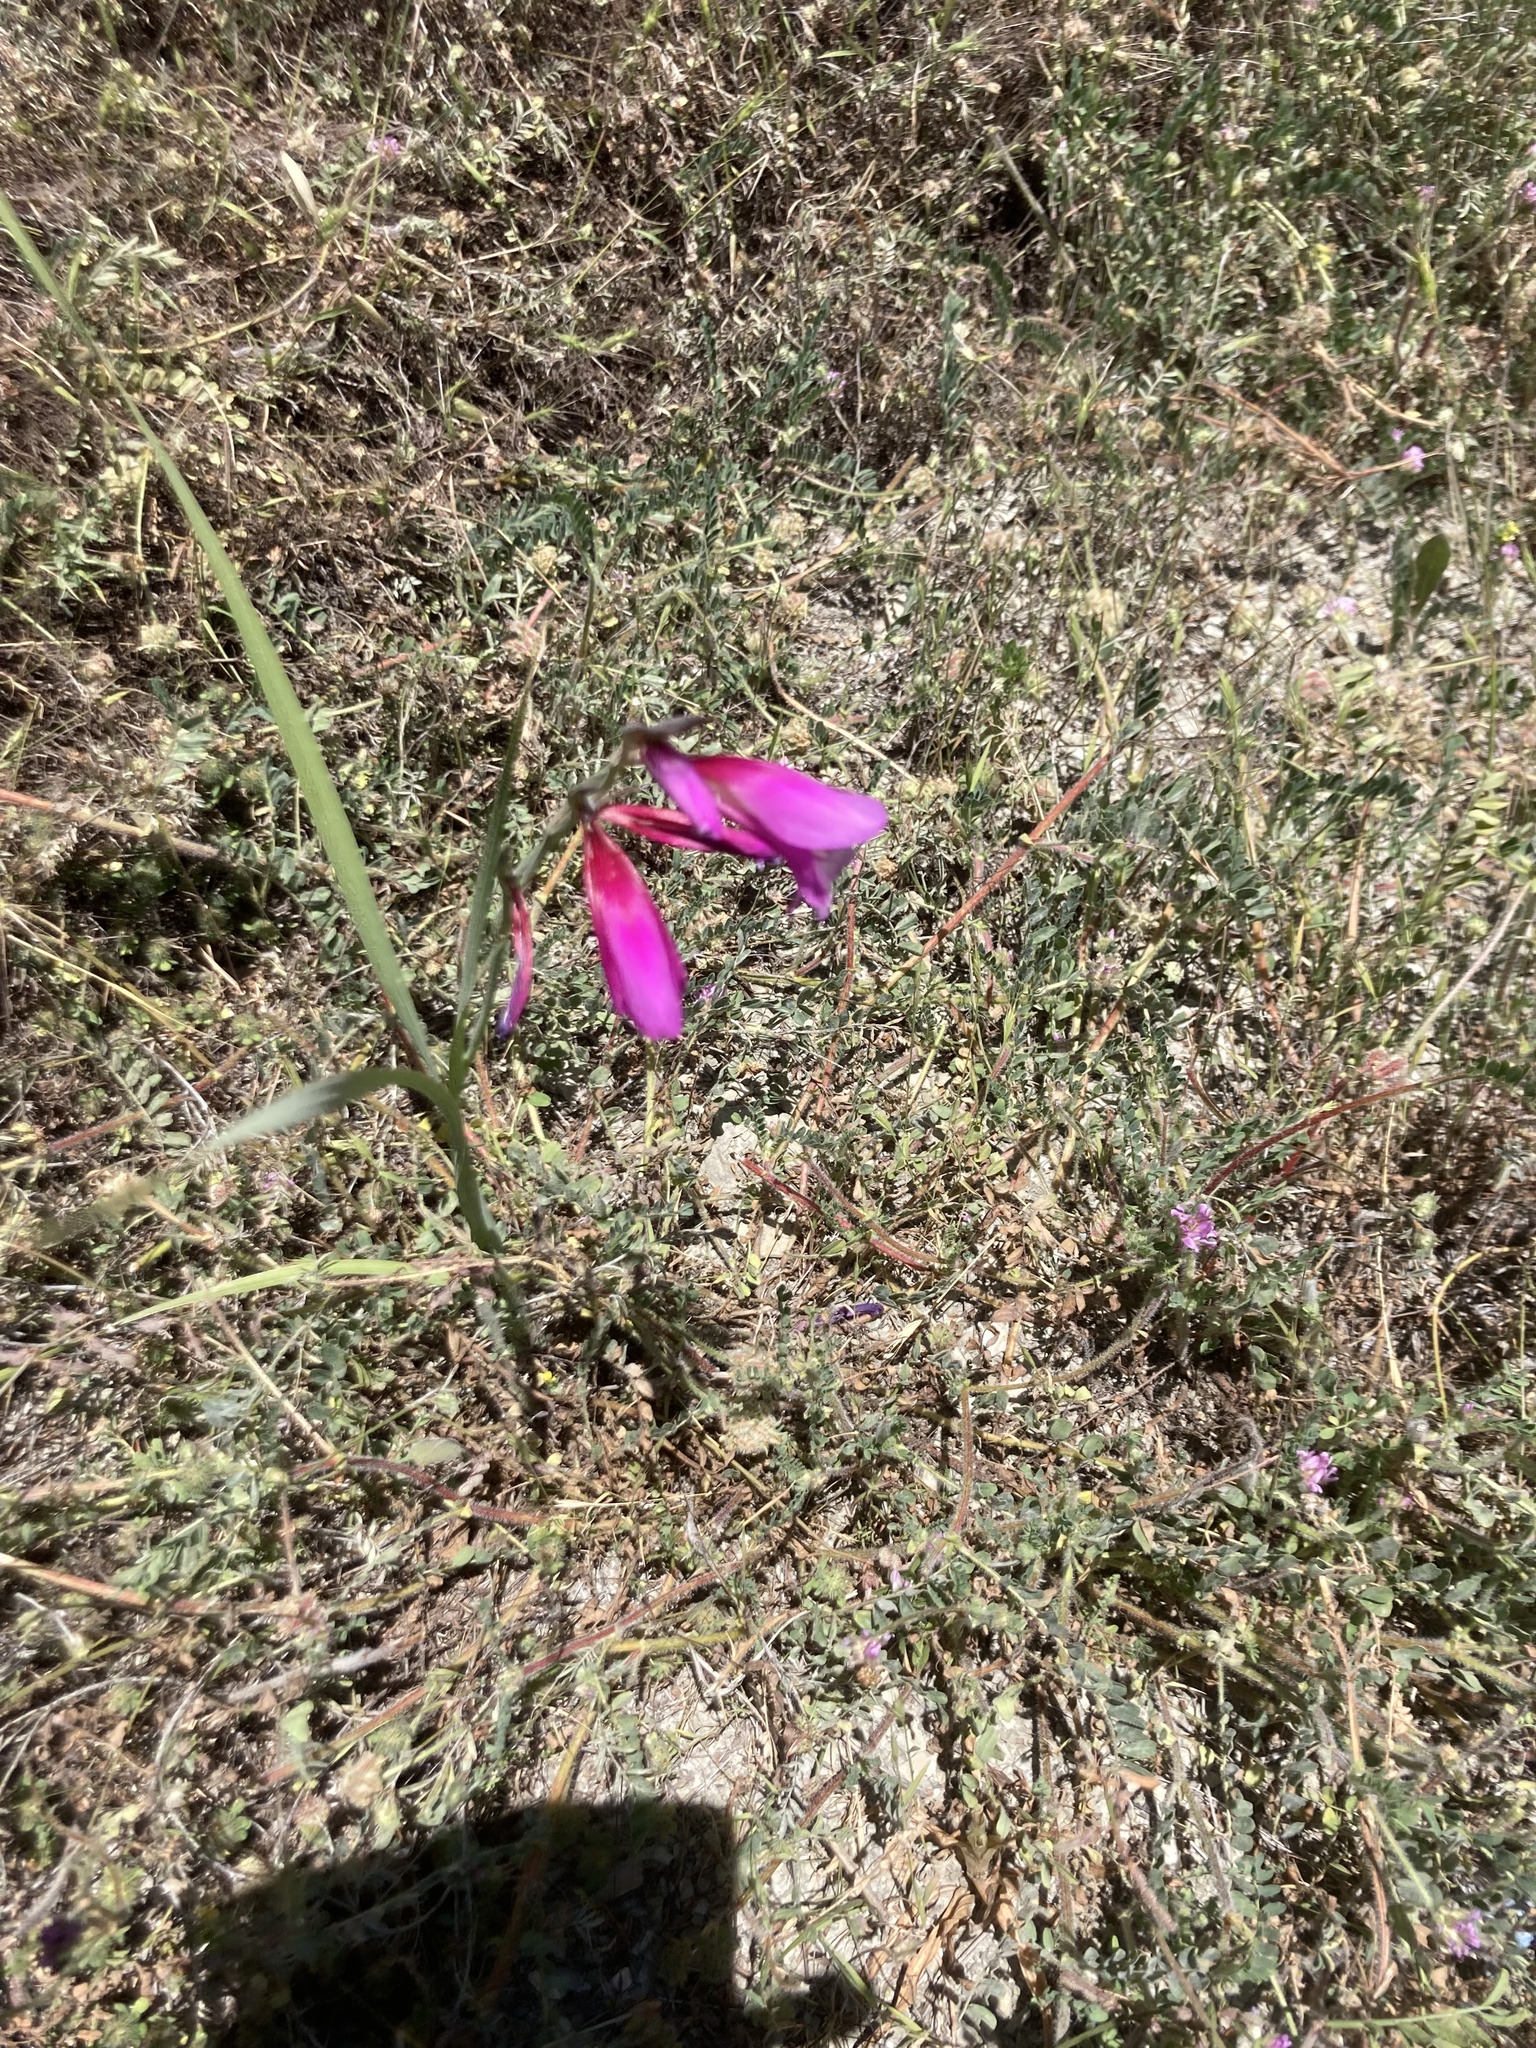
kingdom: Plantae
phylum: Tracheophyta
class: Liliopsida
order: Asparagales
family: Iridaceae
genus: Gladiolus
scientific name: Gladiolus italicus
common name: Field gladiolus
